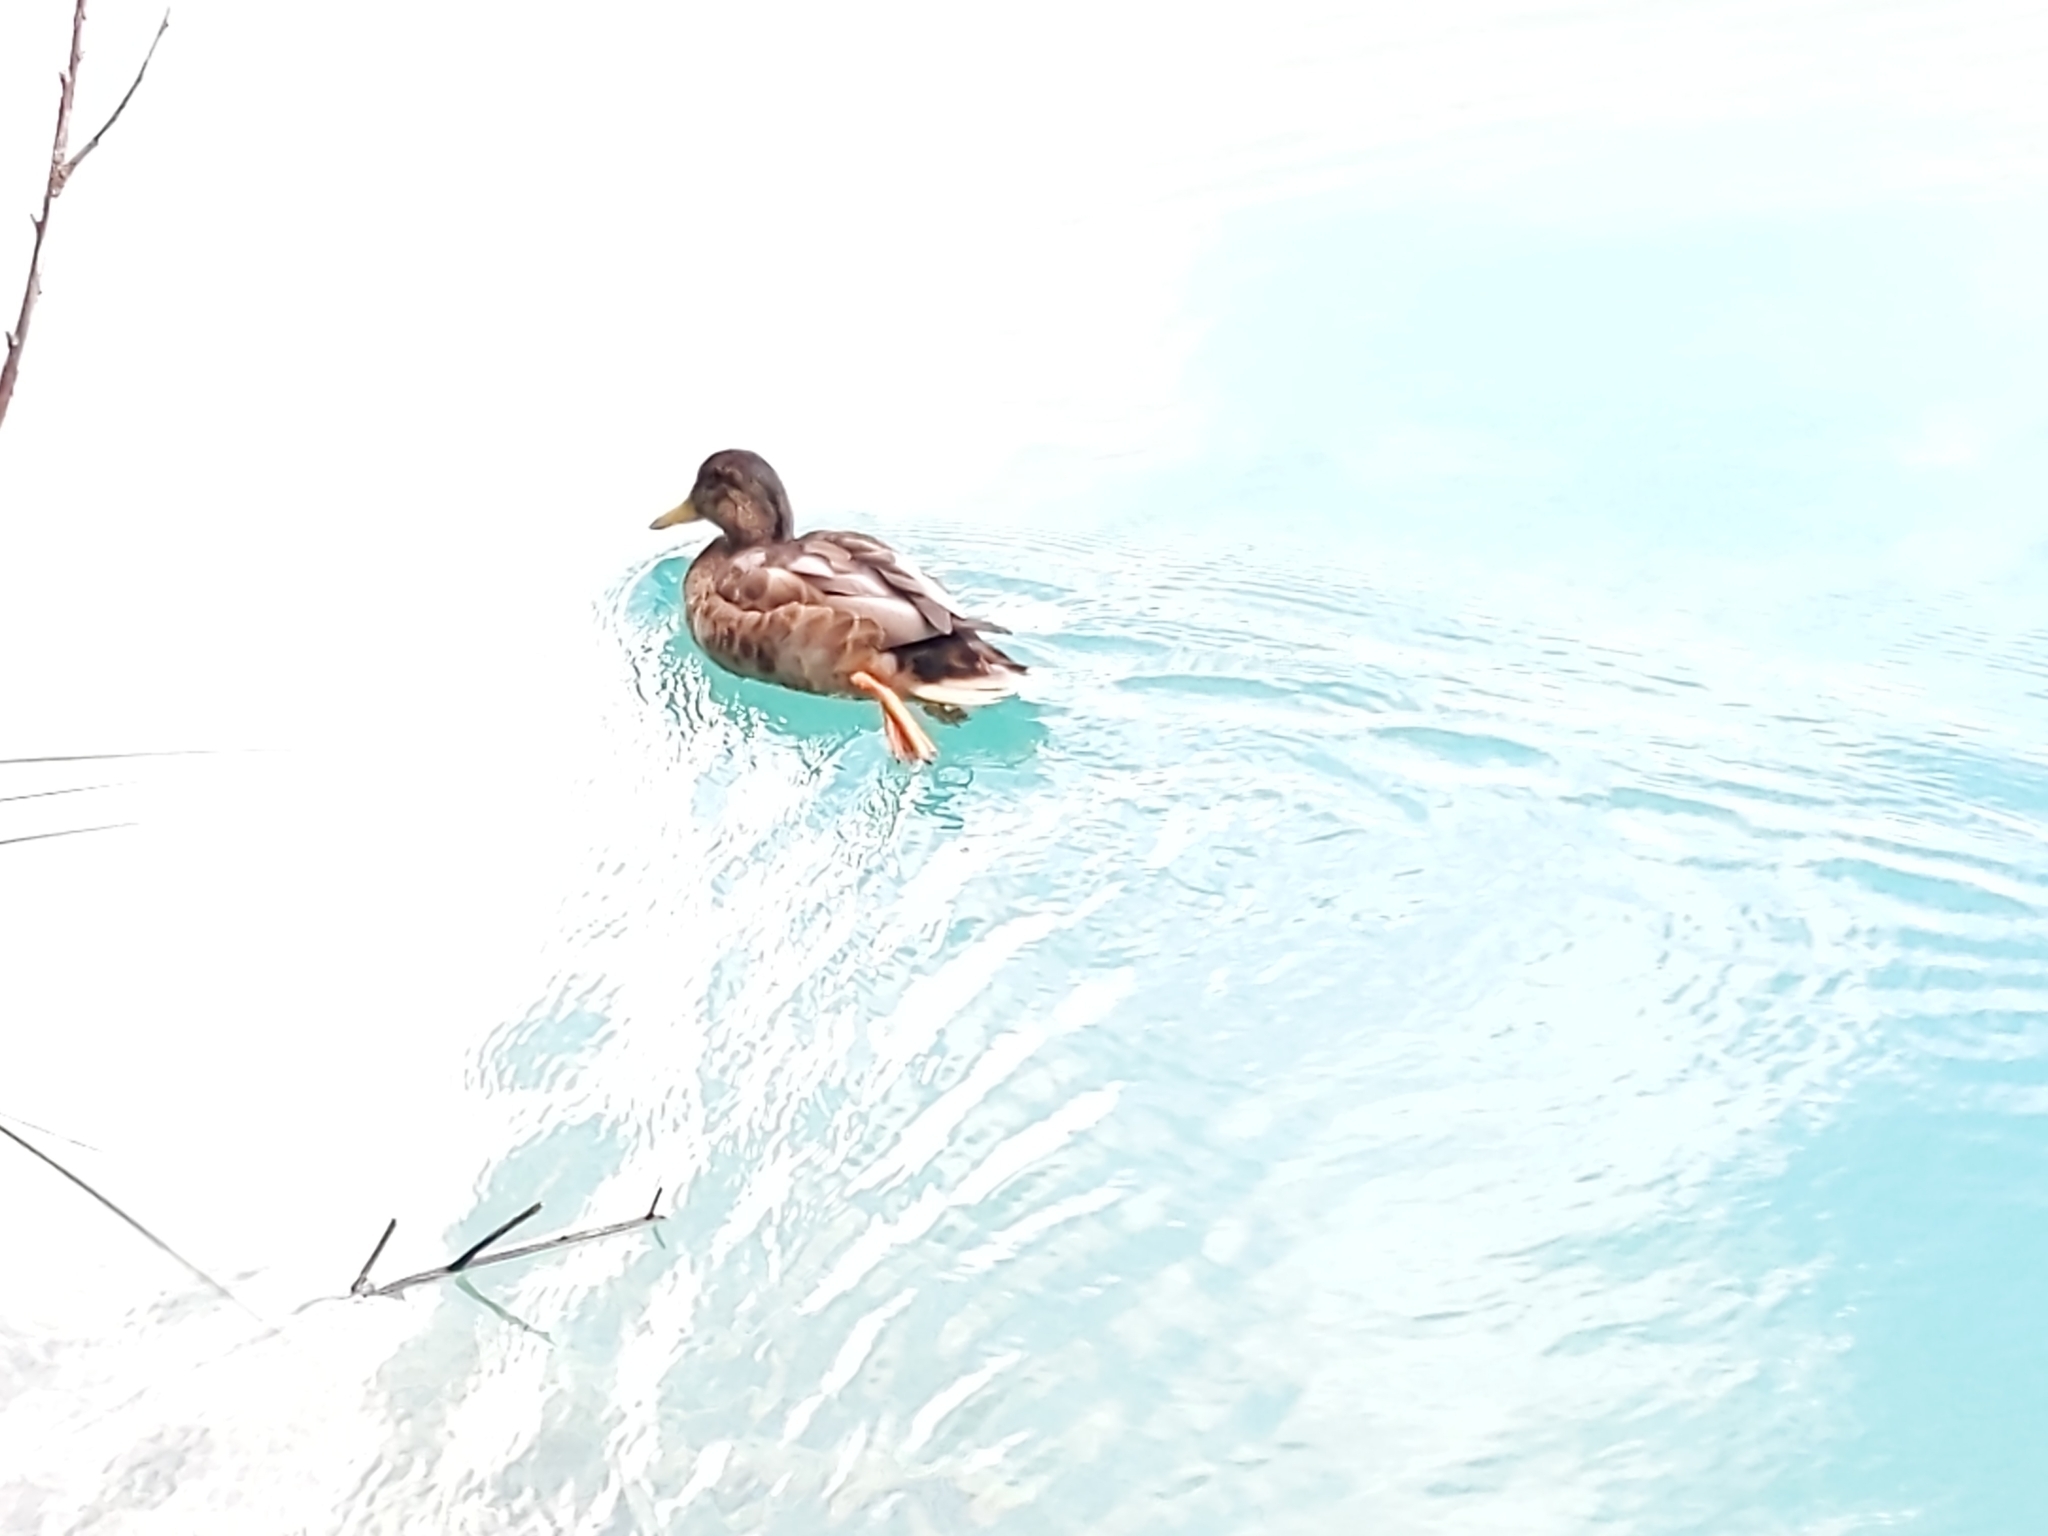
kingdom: Animalia
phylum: Chordata
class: Aves
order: Anseriformes
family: Anatidae
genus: Anas
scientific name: Anas platyrhynchos
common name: Mallard
